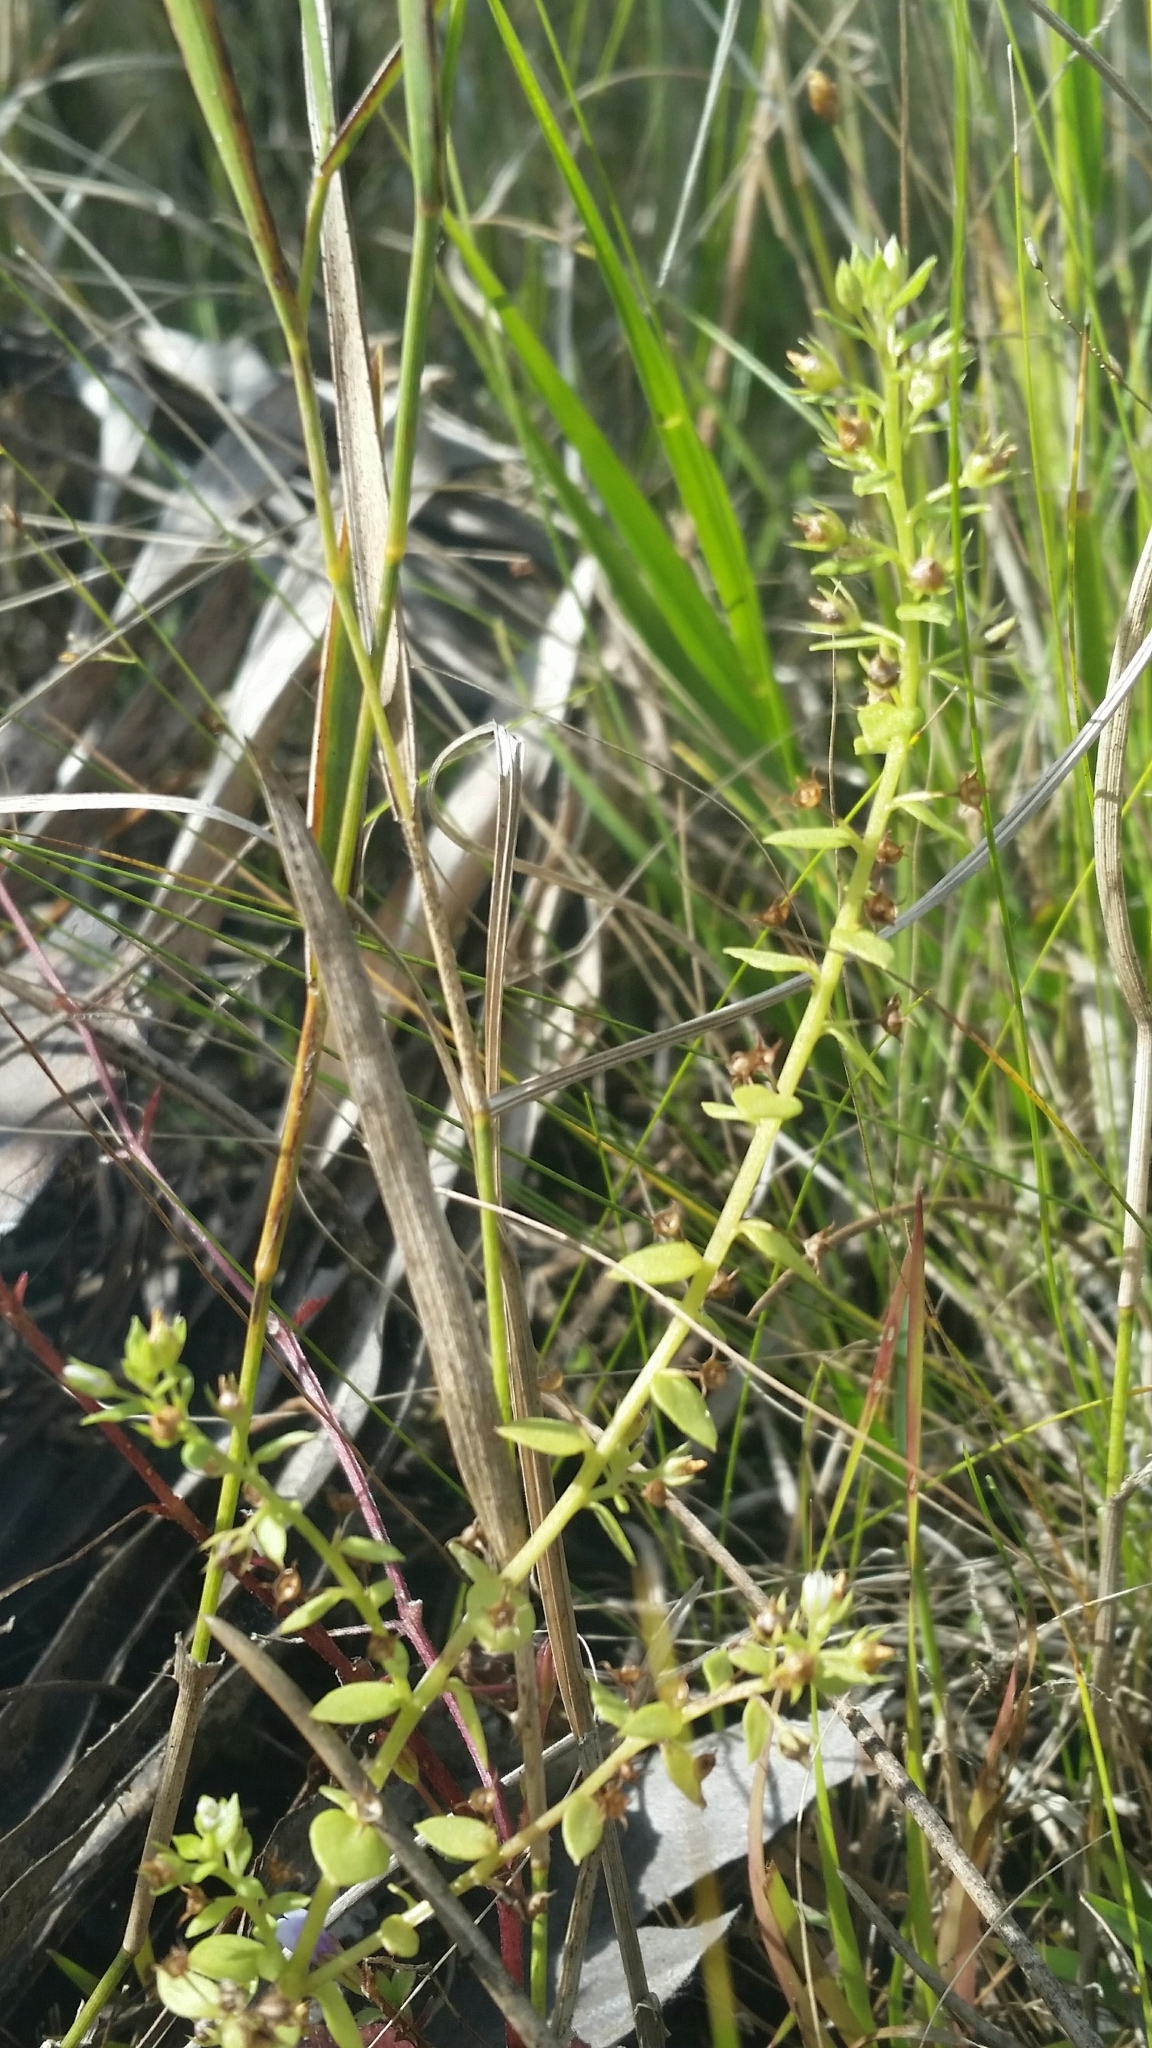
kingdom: Plantae
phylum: Tracheophyta
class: Magnoliopsida
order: Ericales
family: Primulaceae
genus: Lysimachia
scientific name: Lysimachia ovalis
